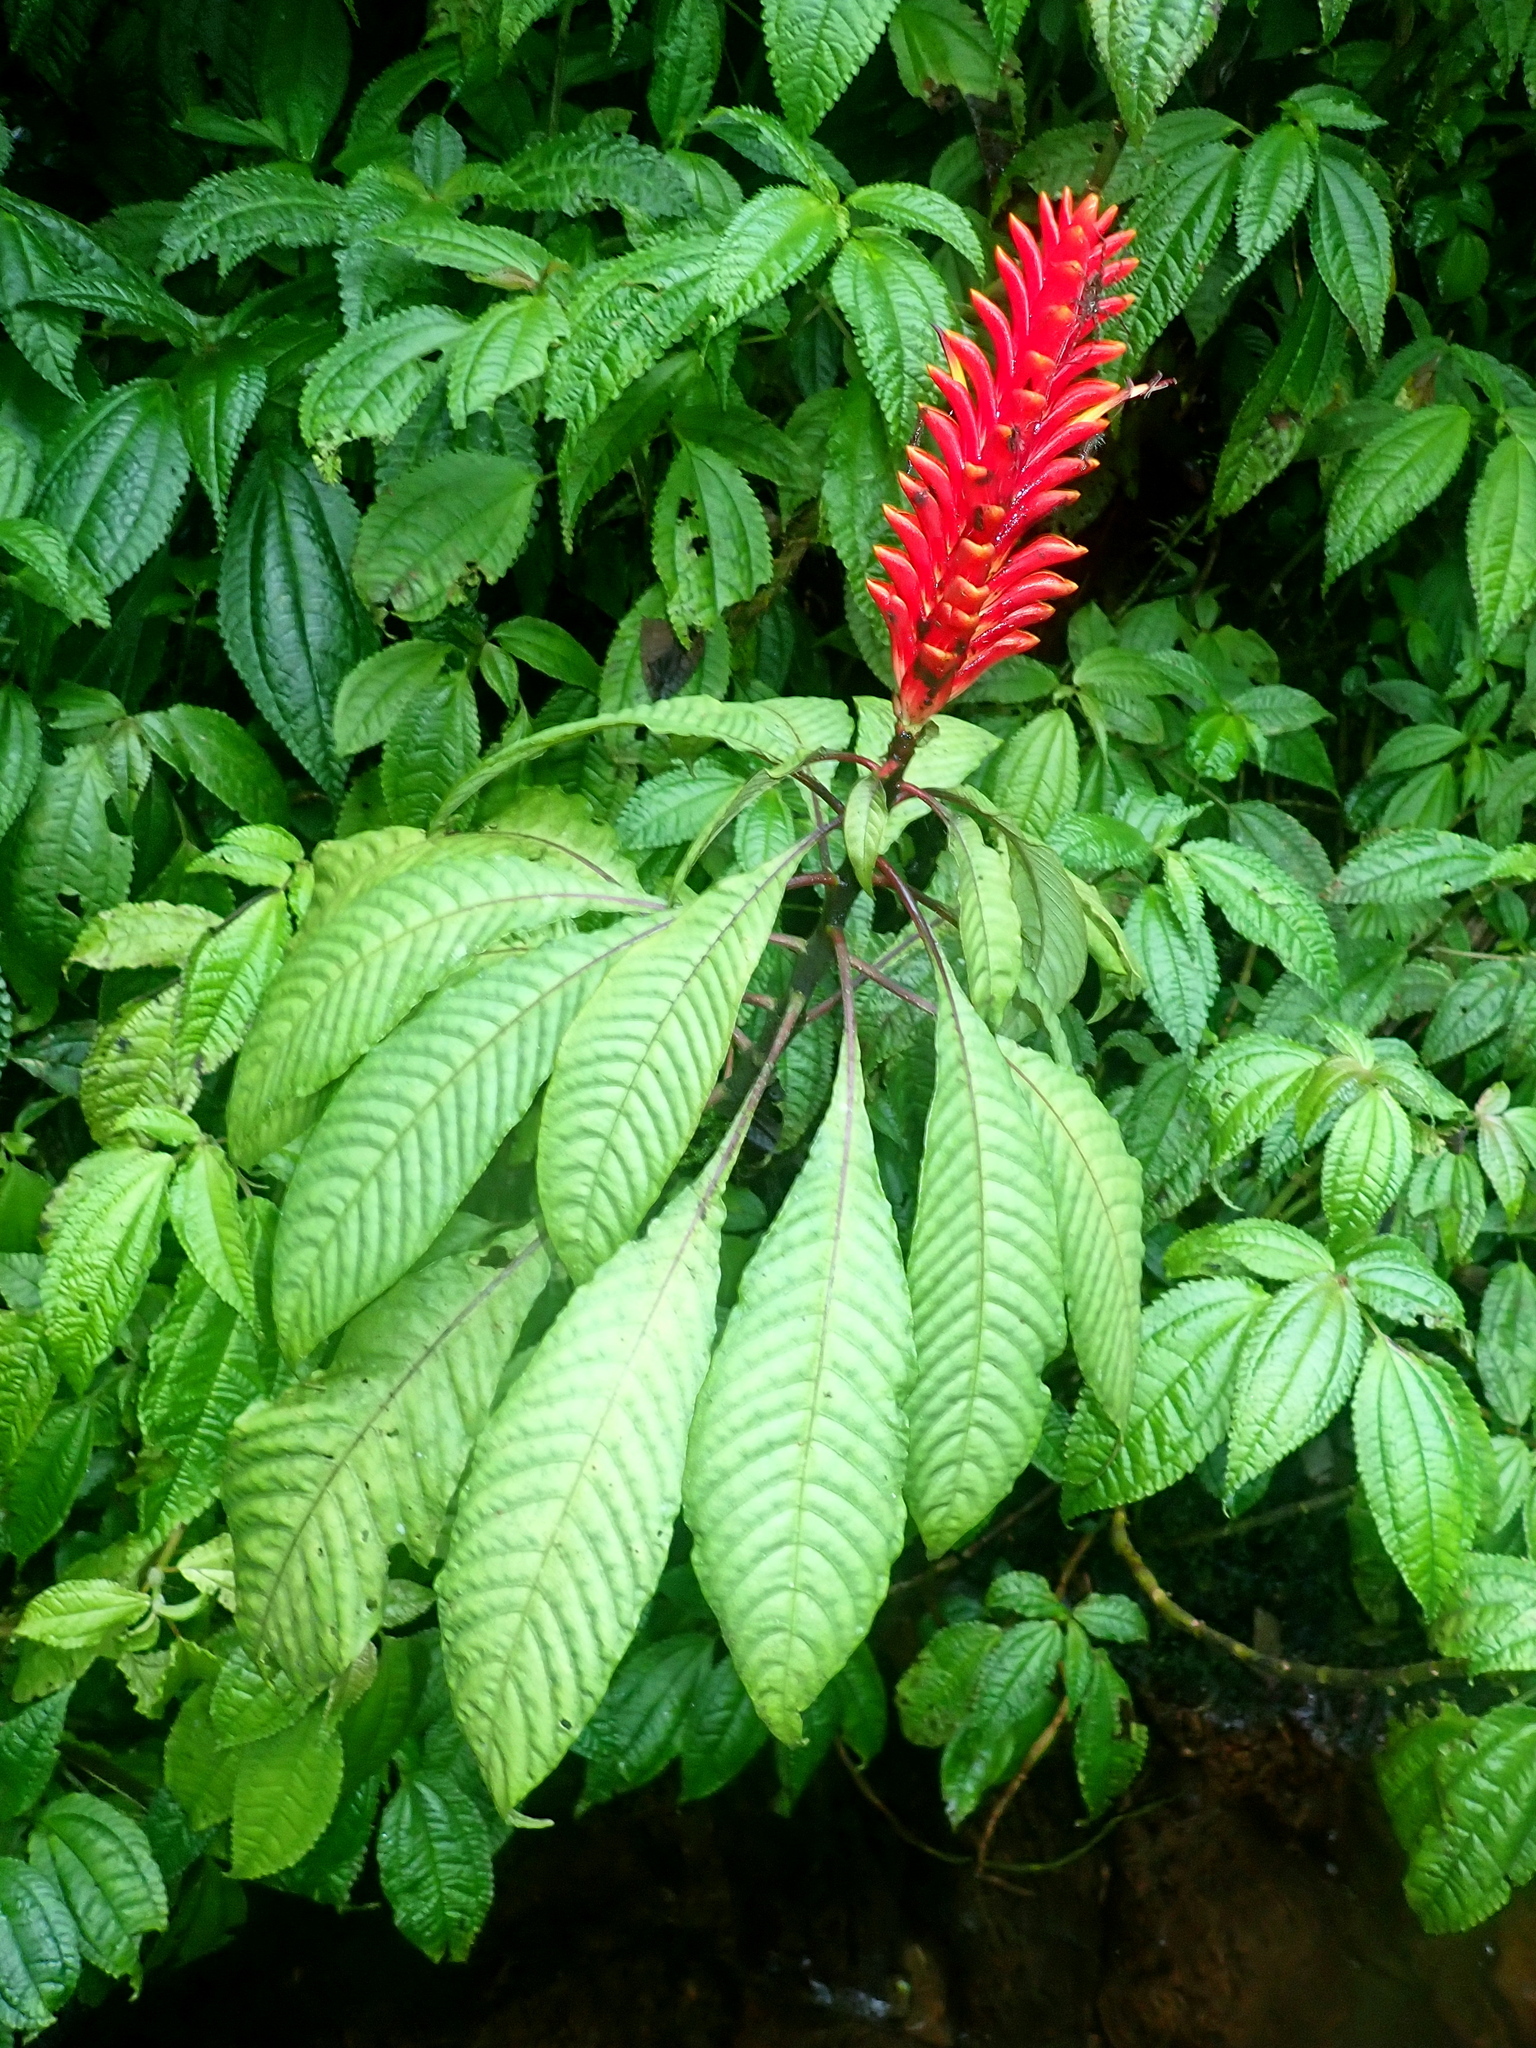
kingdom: Plantae
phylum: Tracheophyta
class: Magnoliopsida
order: Lamiales
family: Acanthaceae
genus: Aphelandra
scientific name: Aphelandra liboniana
